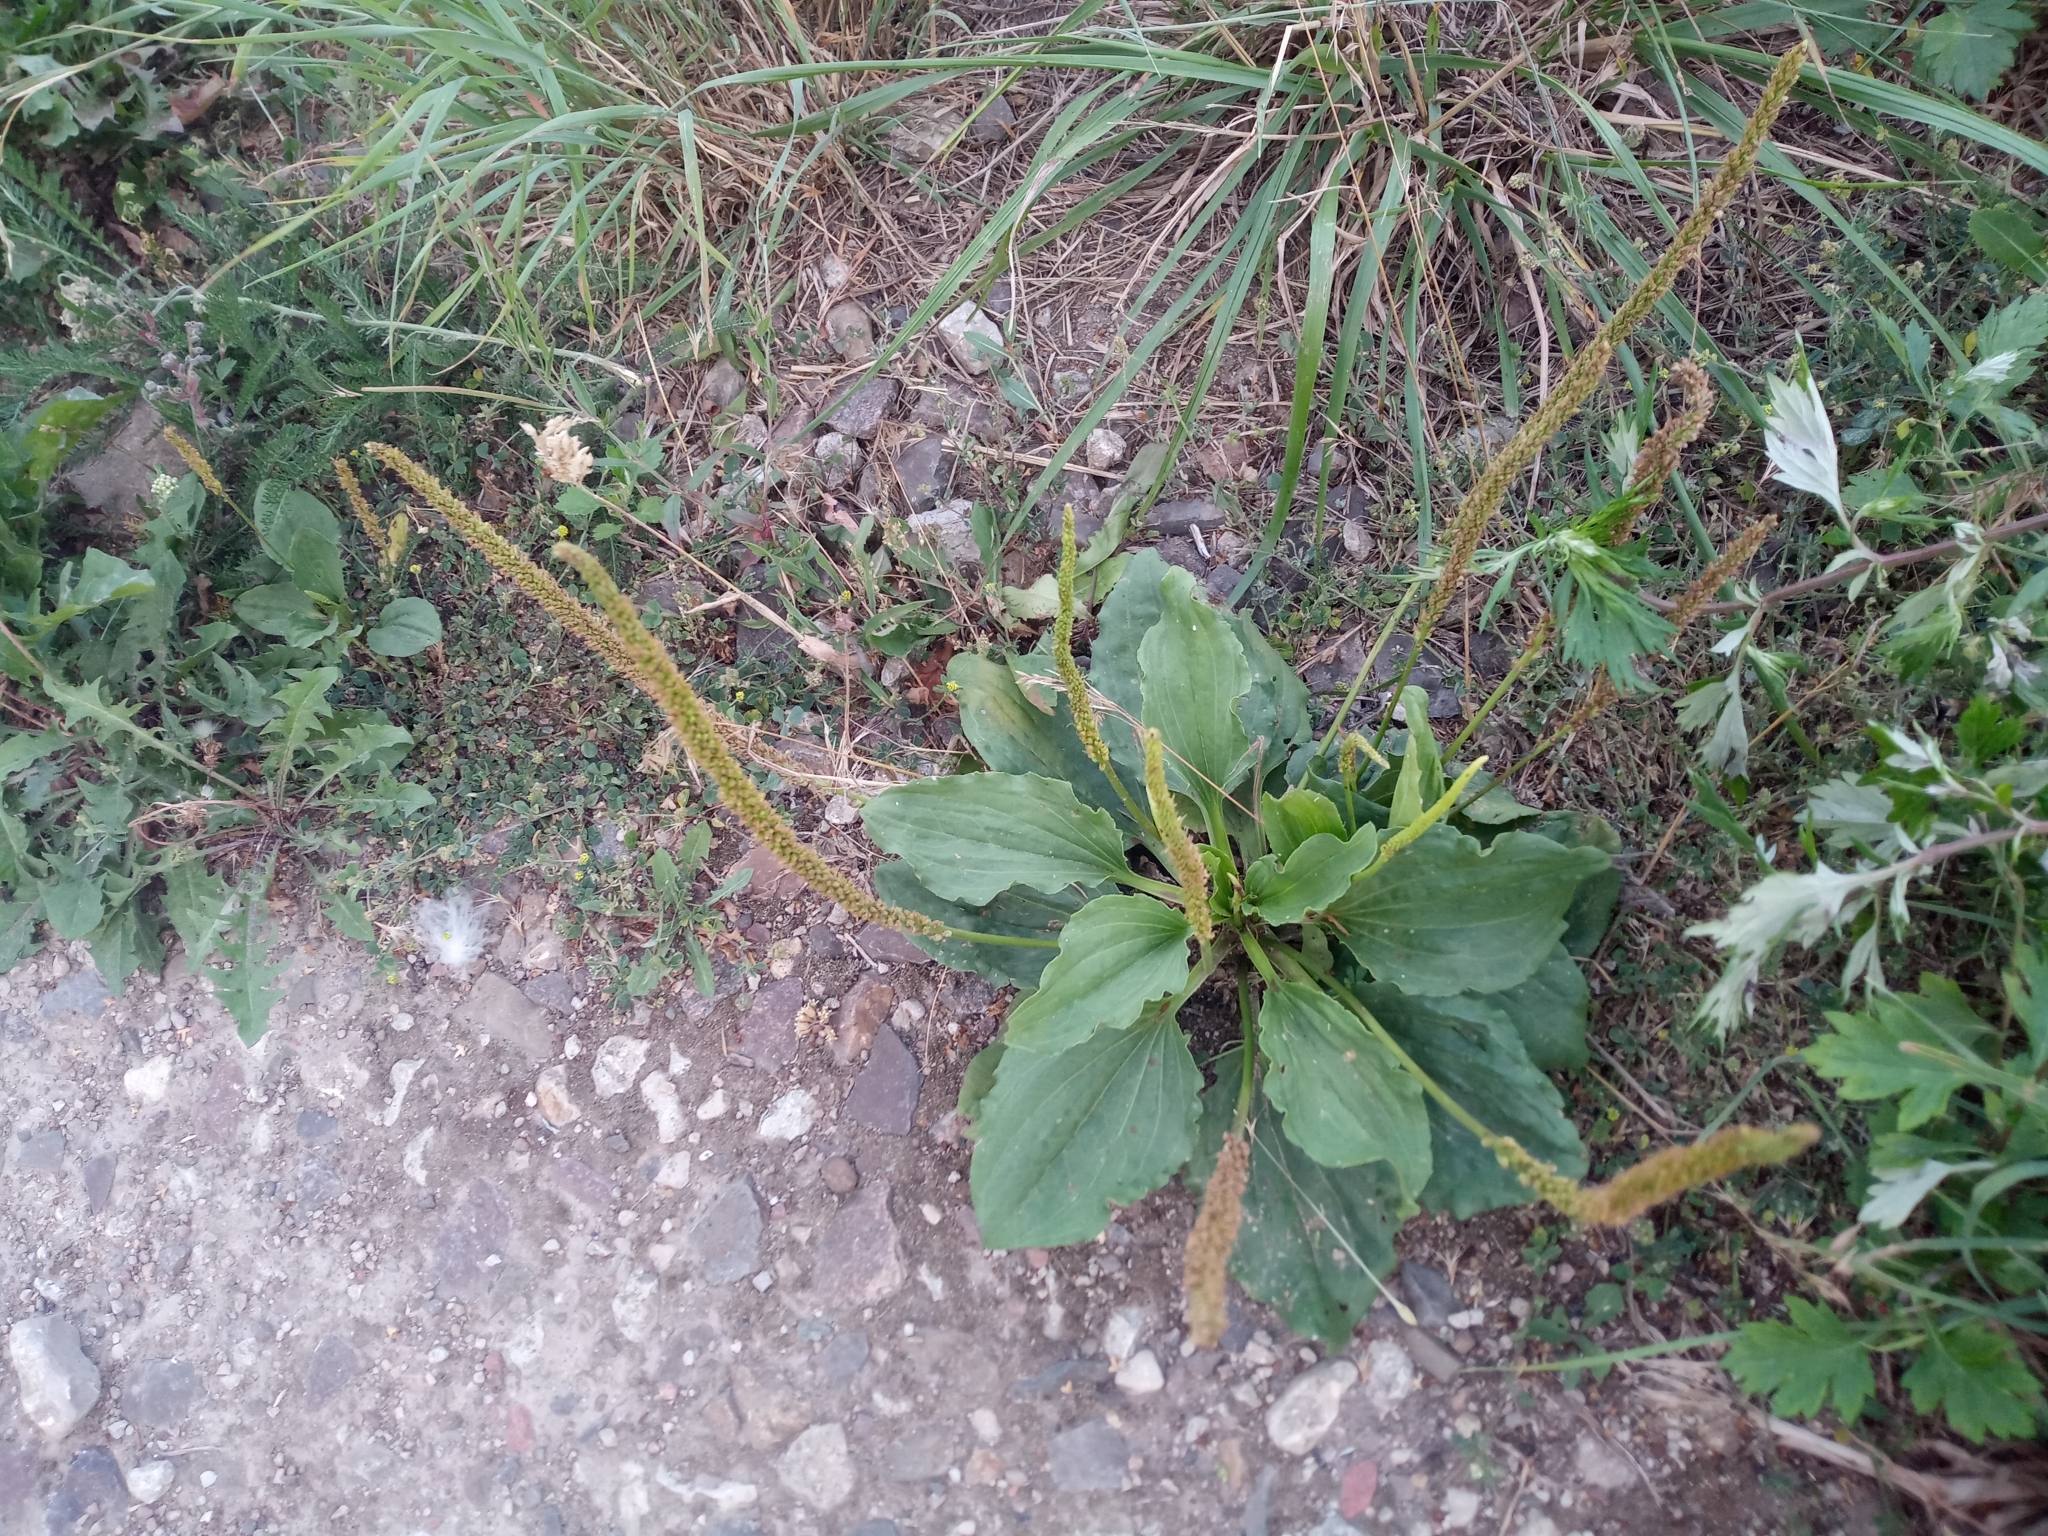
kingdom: Plantae
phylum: Tracheophyta
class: Magnoliopsida
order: Lamiales
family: Plantaginaceae
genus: Plantago
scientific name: Plantago major
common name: Common plantain
